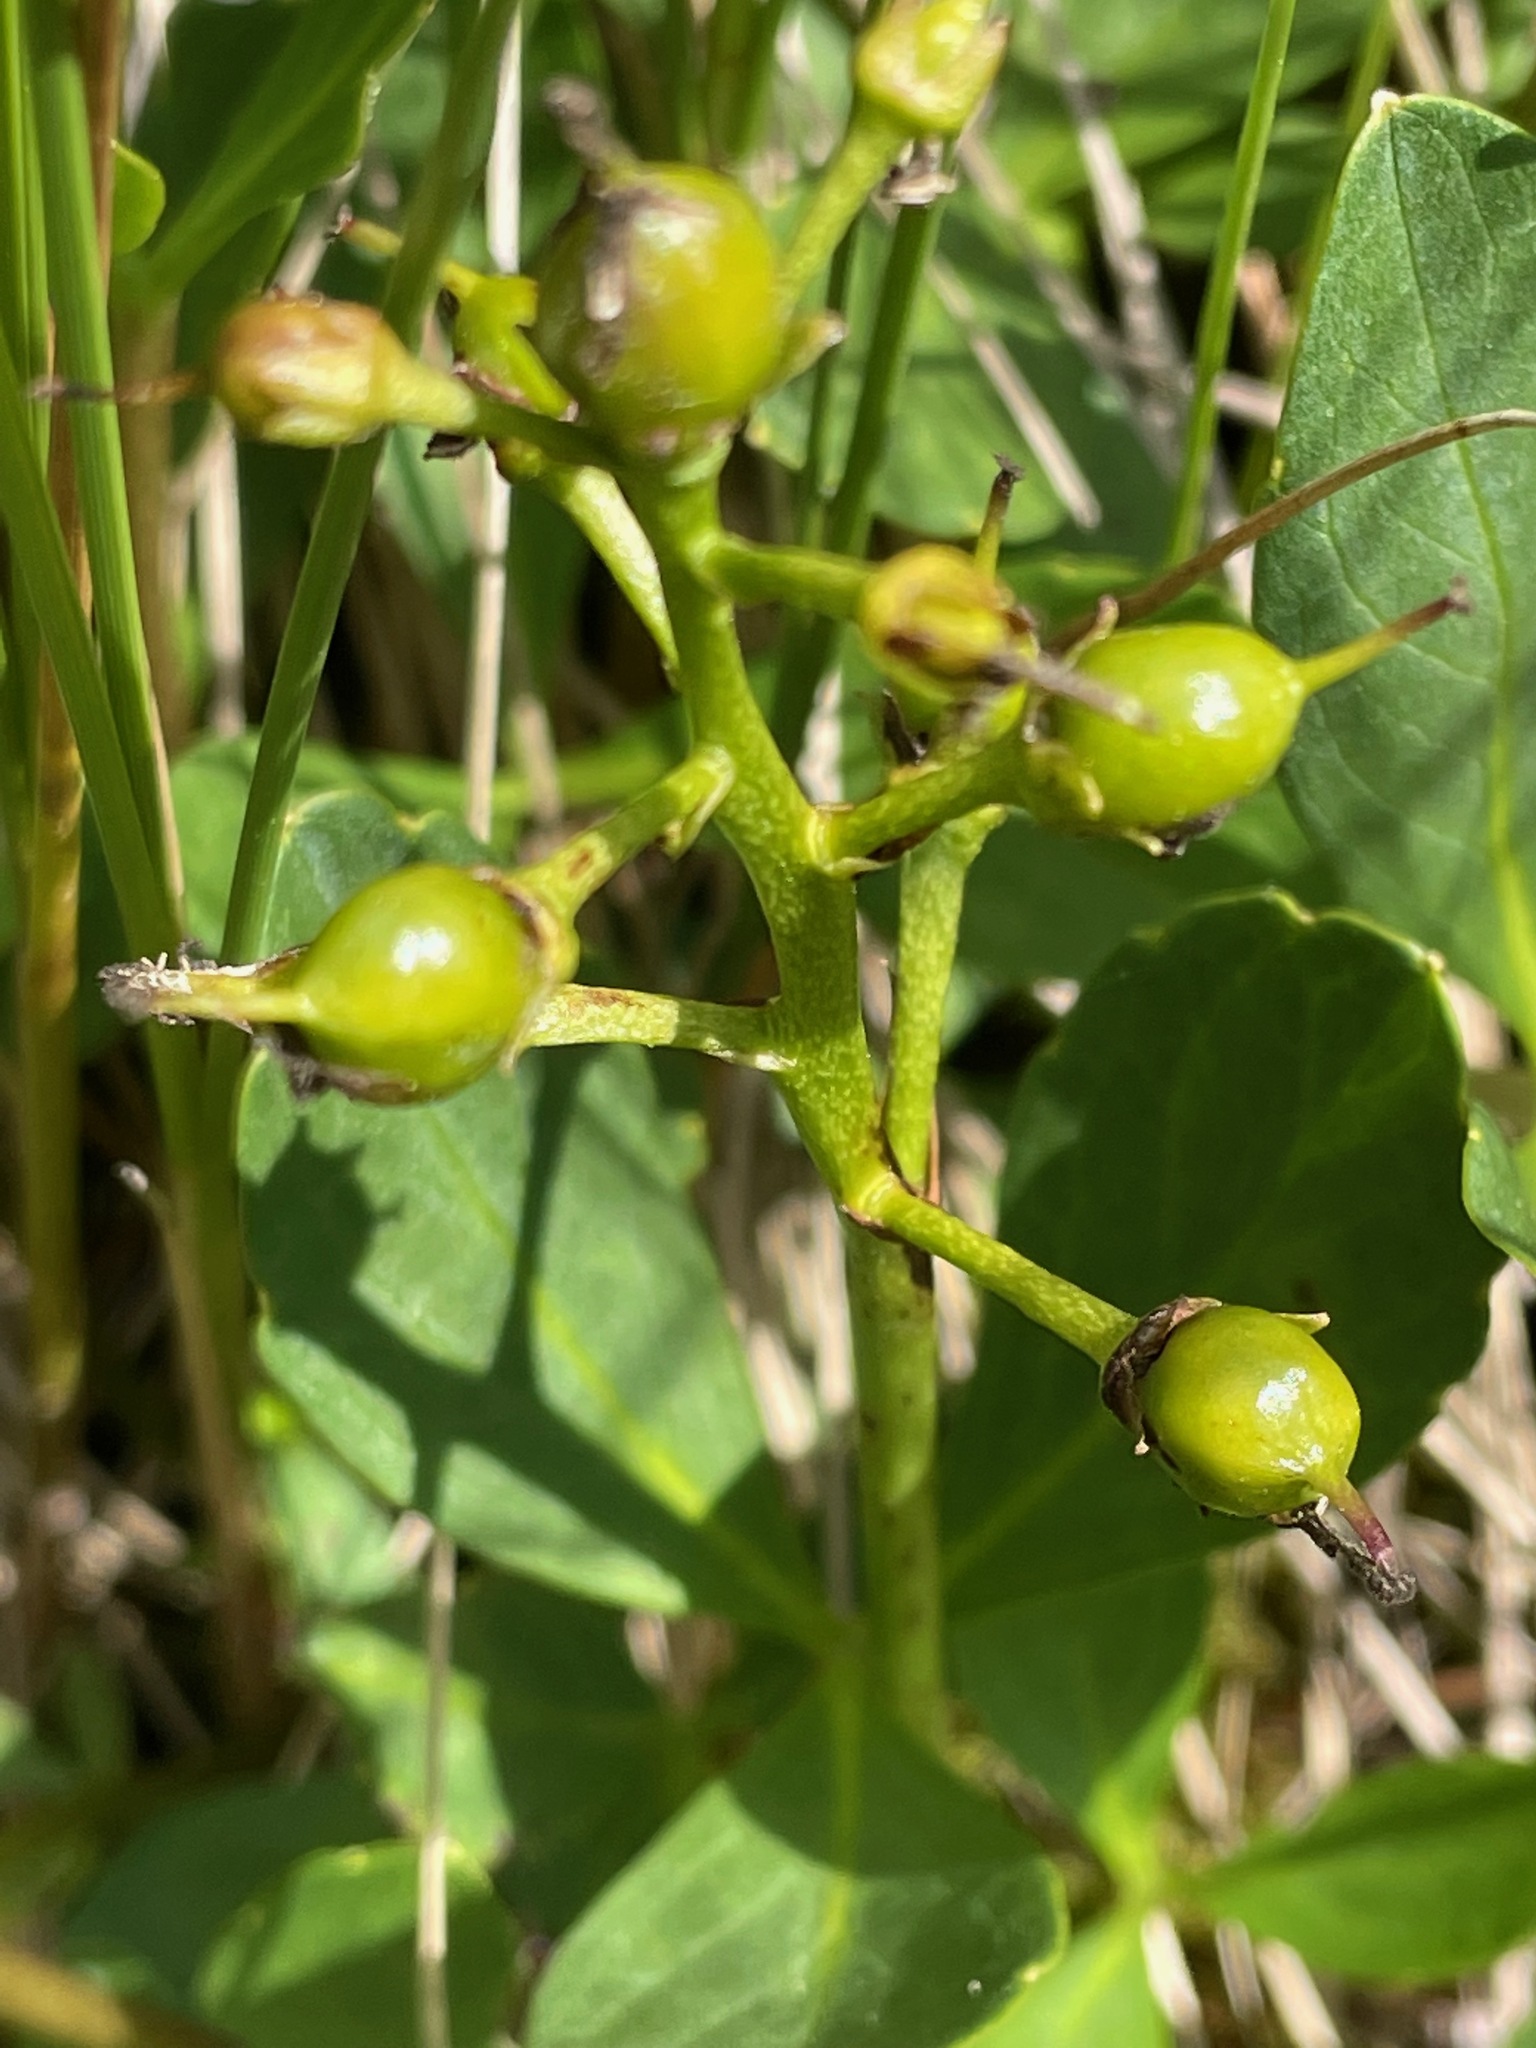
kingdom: Plantae
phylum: Tracheophyta
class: Magnoliopsida
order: Asterales
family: Menyanthaceae
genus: Menyanthes
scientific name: Menyanthes trifoliata
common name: Bogbean
